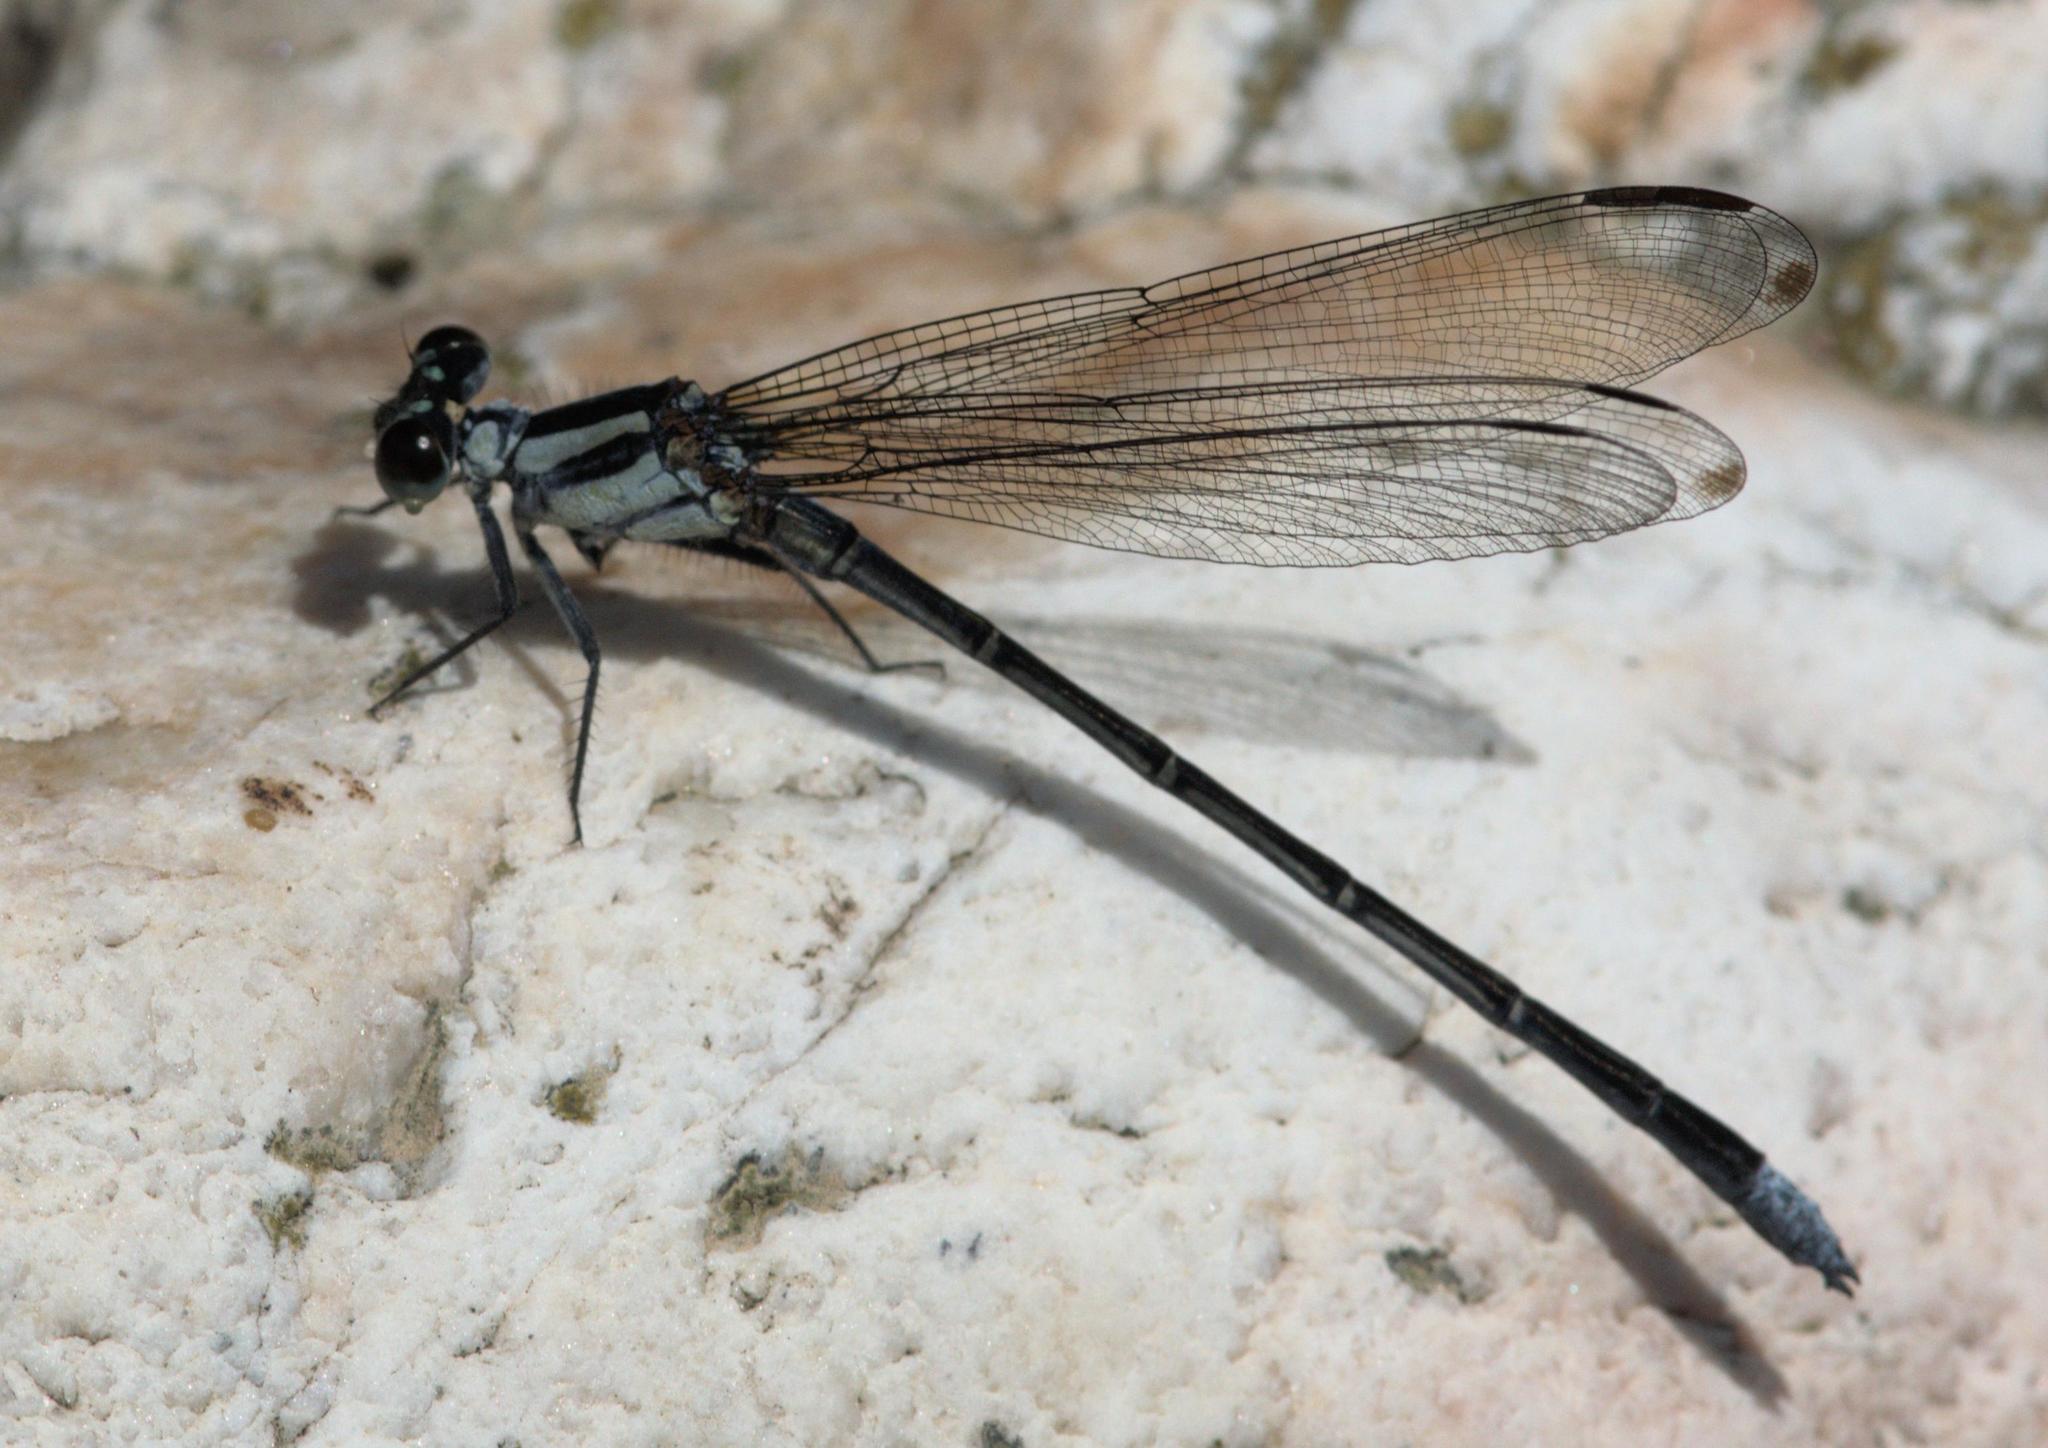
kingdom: Animalia
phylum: Arthropoda
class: Insecta
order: Odonata
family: Euphaeidae
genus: Anisopleura
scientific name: Anisopleura lestoides
